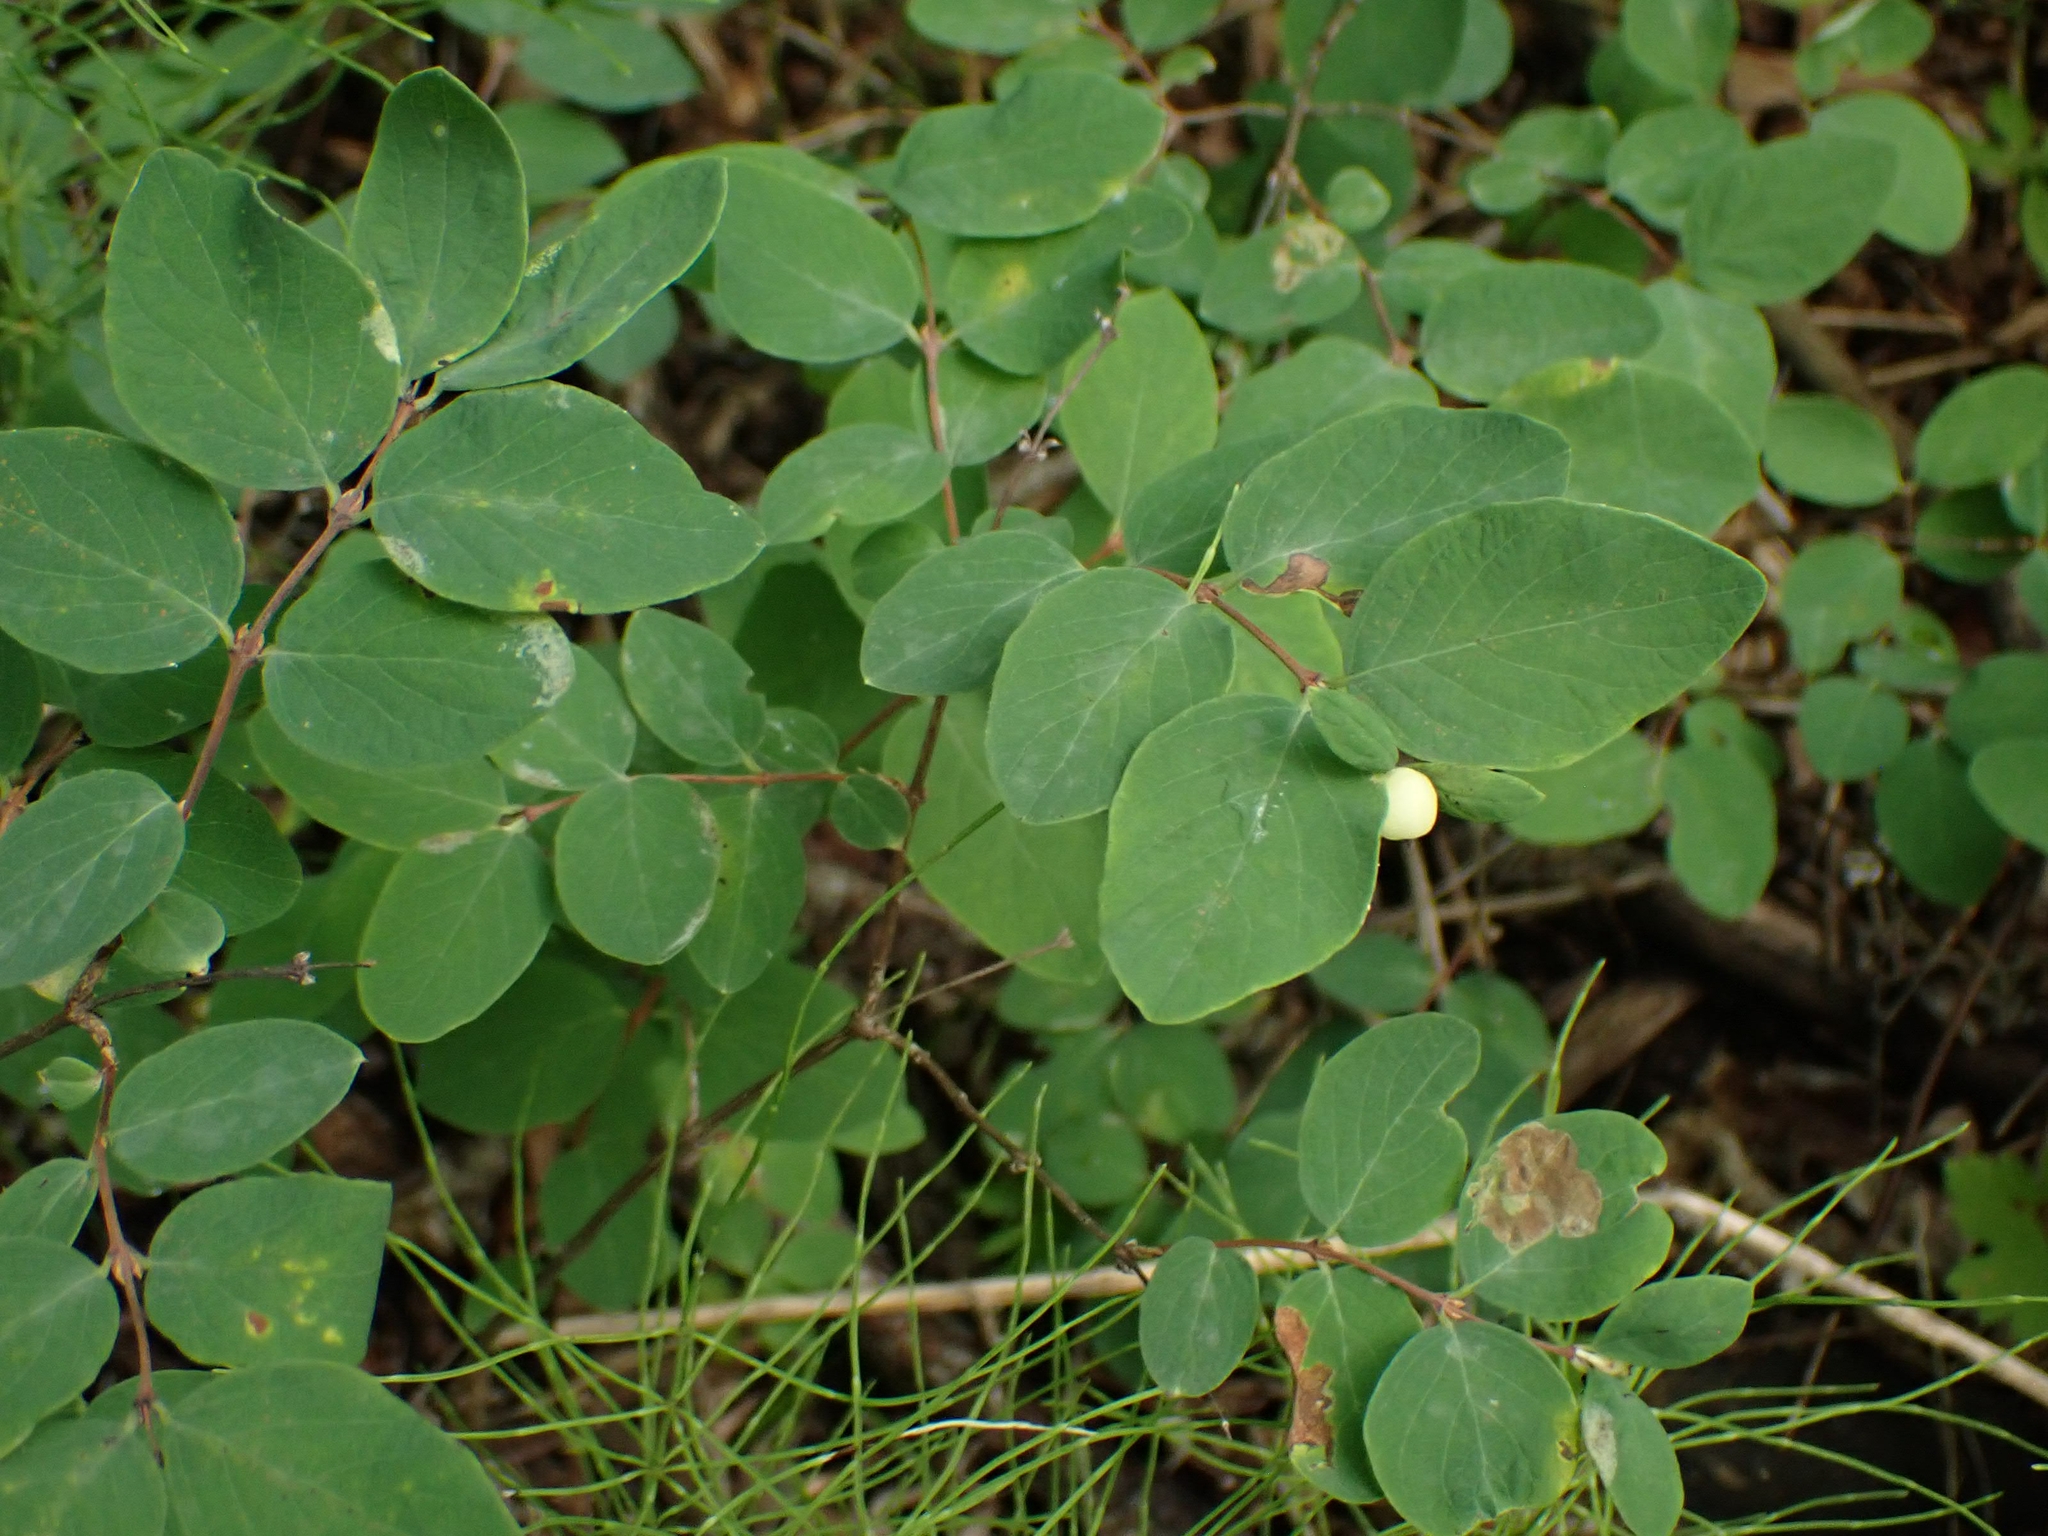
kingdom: Plantae
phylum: Tracheophyta
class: Magnoliopsida
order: Dipsacales
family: Caprifoliaceae
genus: Symphoricarpos
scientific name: Symphoricarpos occidentalis
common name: Wolfberry
